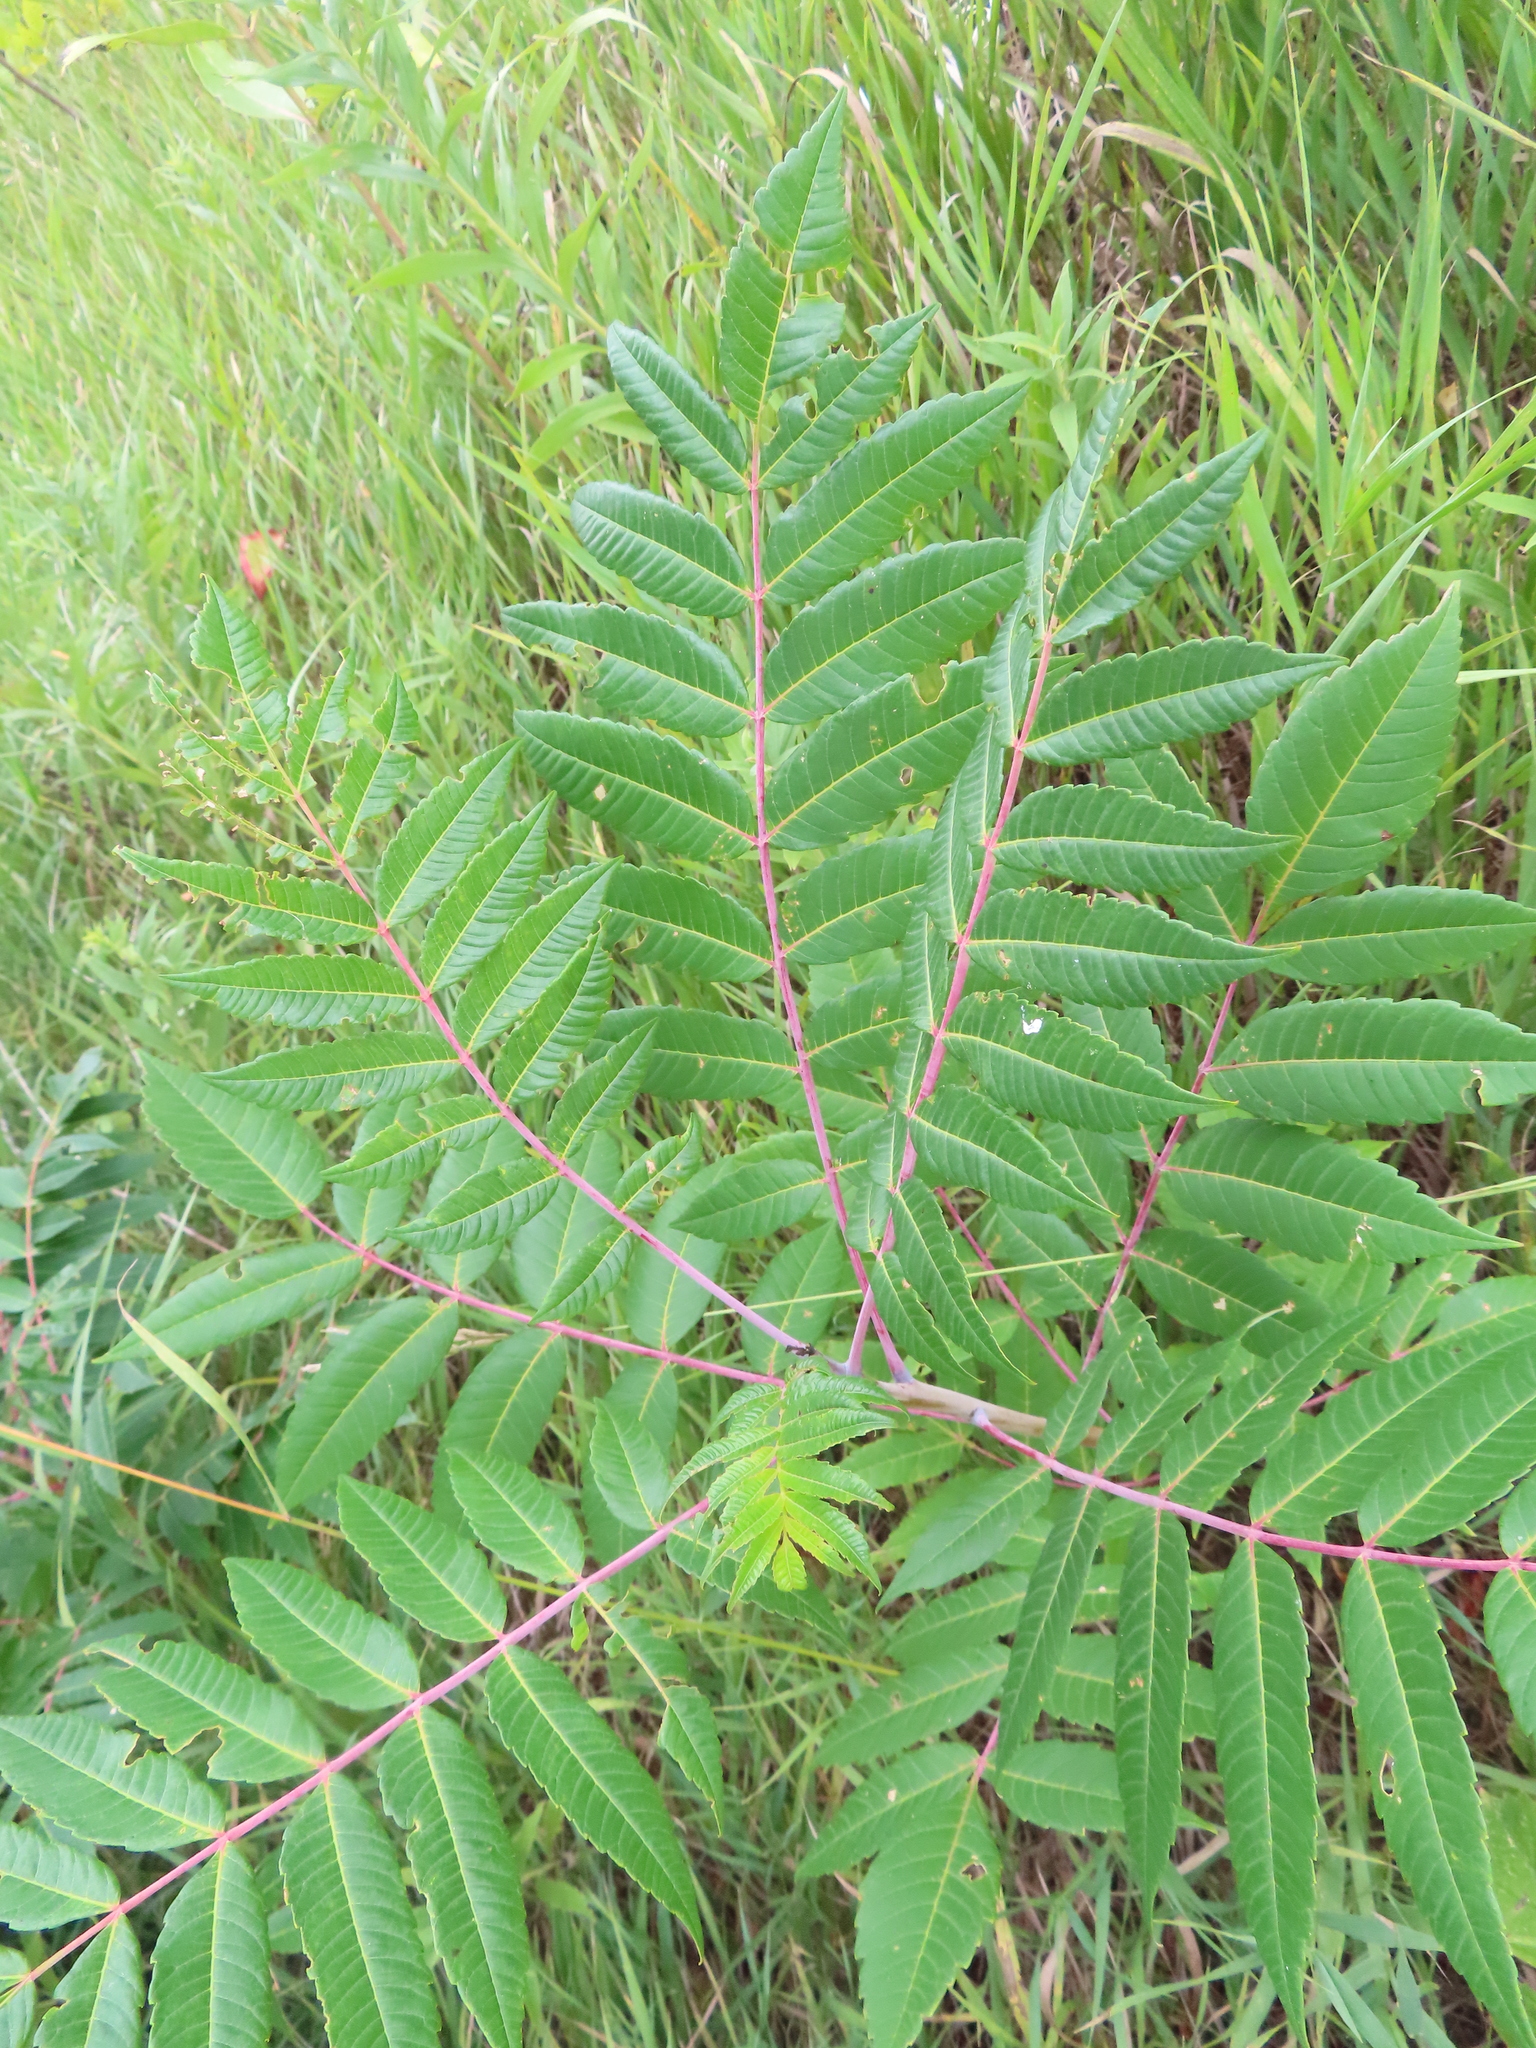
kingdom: Plantae
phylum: Tracheophyta
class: Magnoliopsida
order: Sapindales
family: Anacardiaceae
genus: Rhus
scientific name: Rhus glabra
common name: Scarlet sumac
